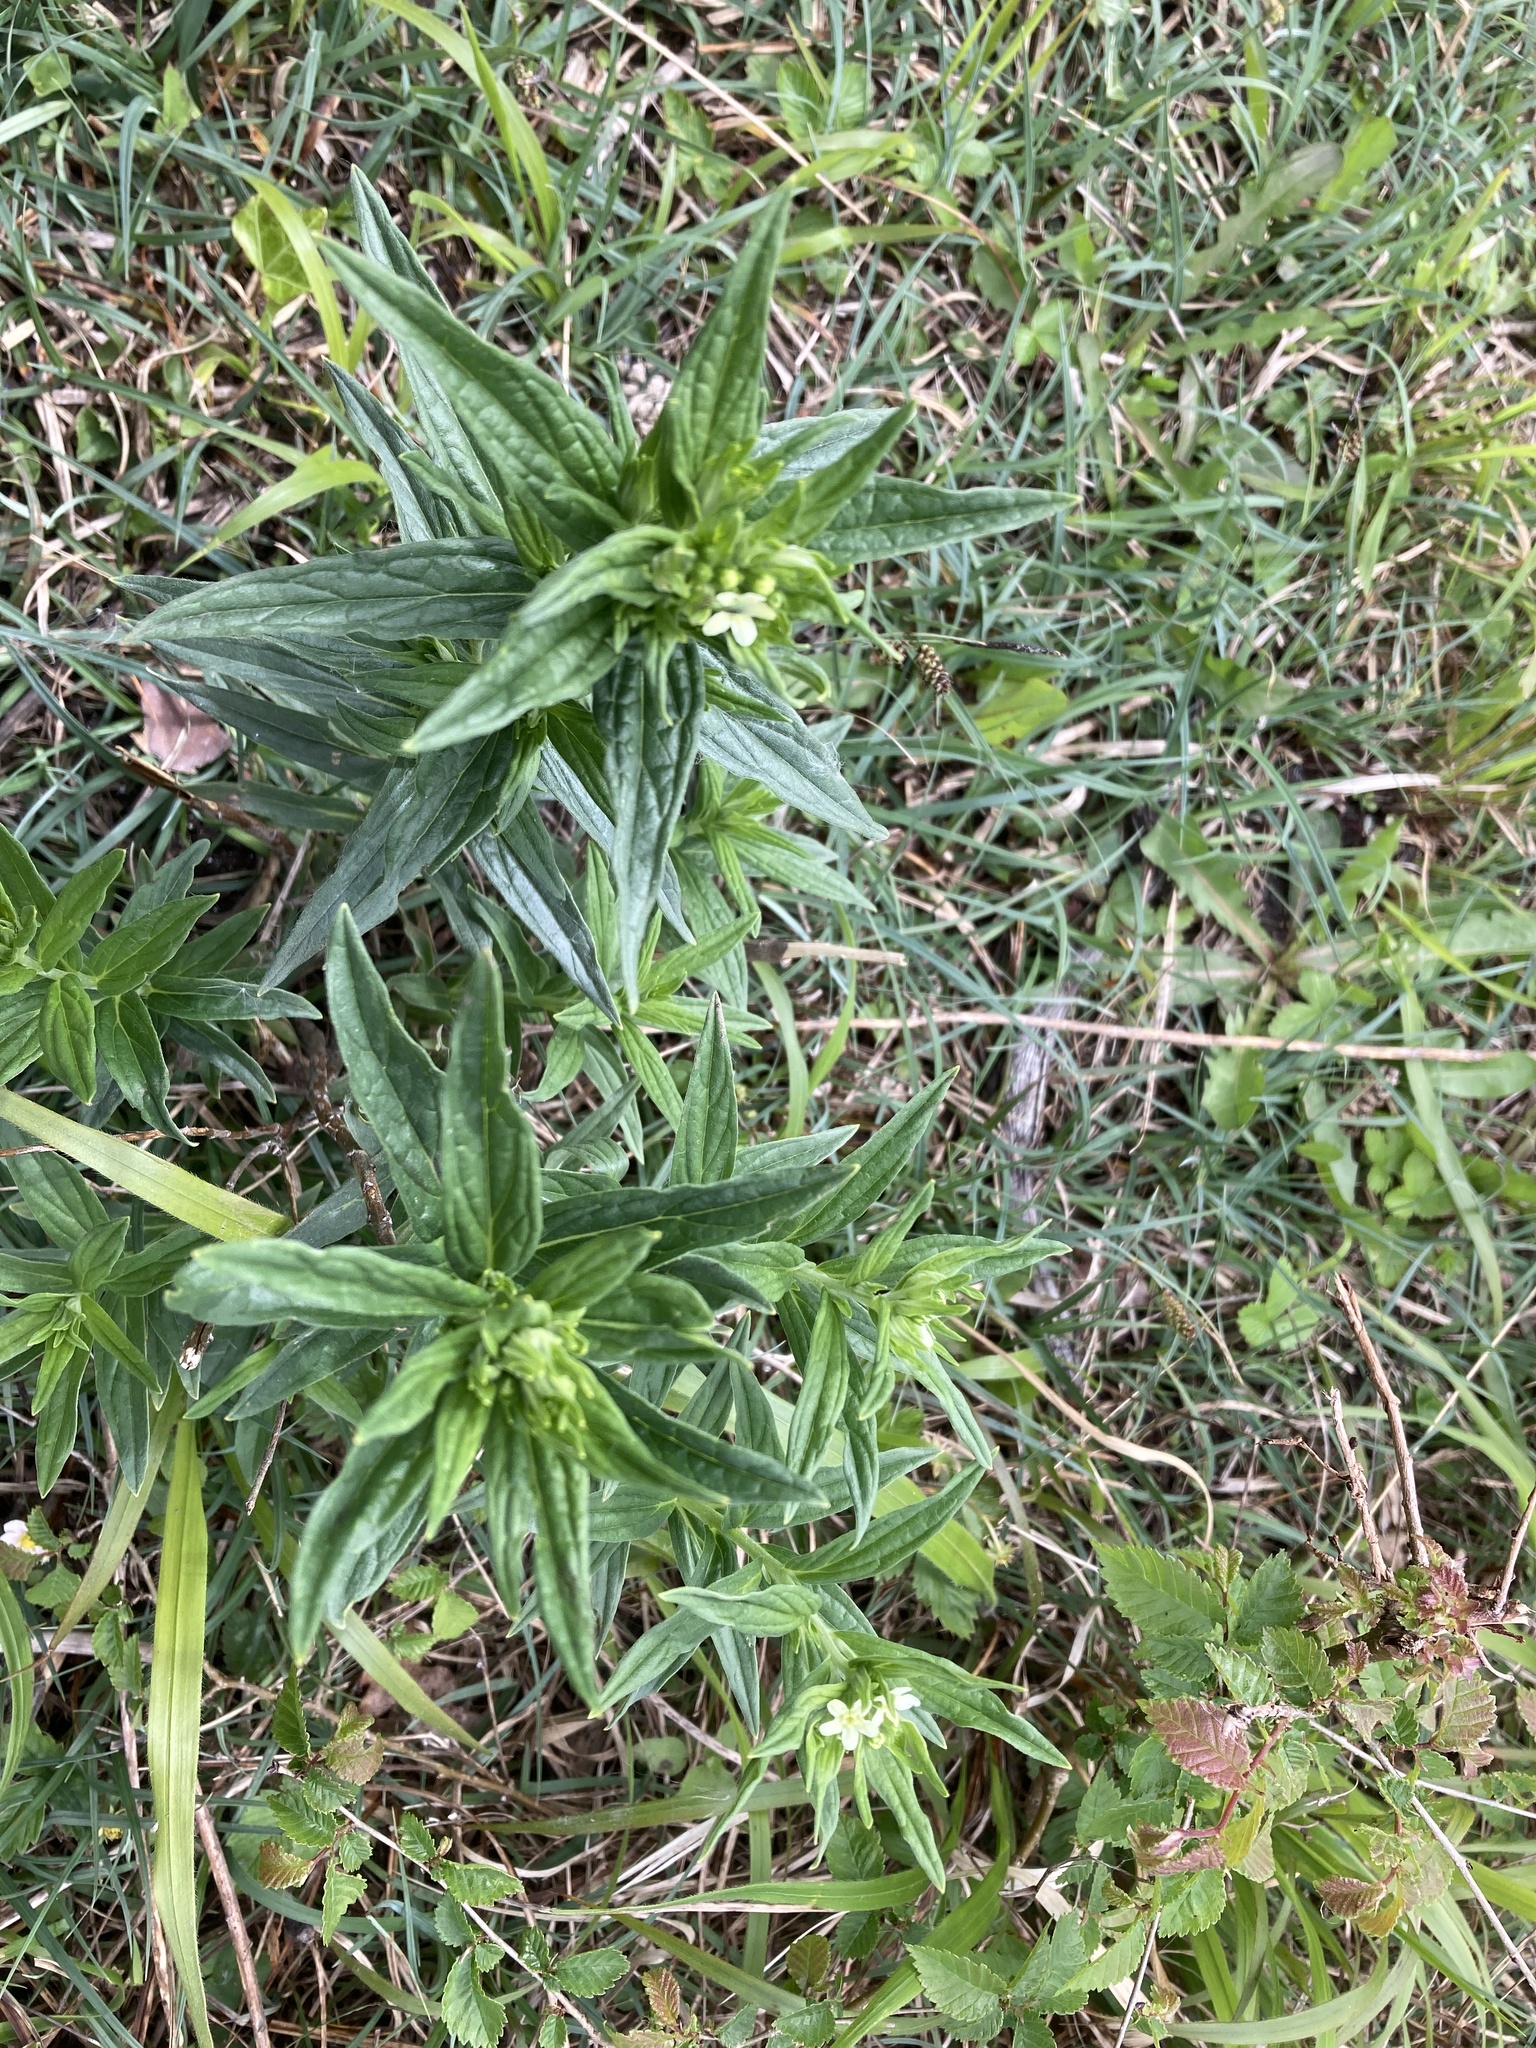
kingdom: Plantae
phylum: Tracheophyta
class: Magnoliopsida
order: Boraginales
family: Boraginaceae
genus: Lithospermum
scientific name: Lithospermum officinale
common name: Common gromwell
